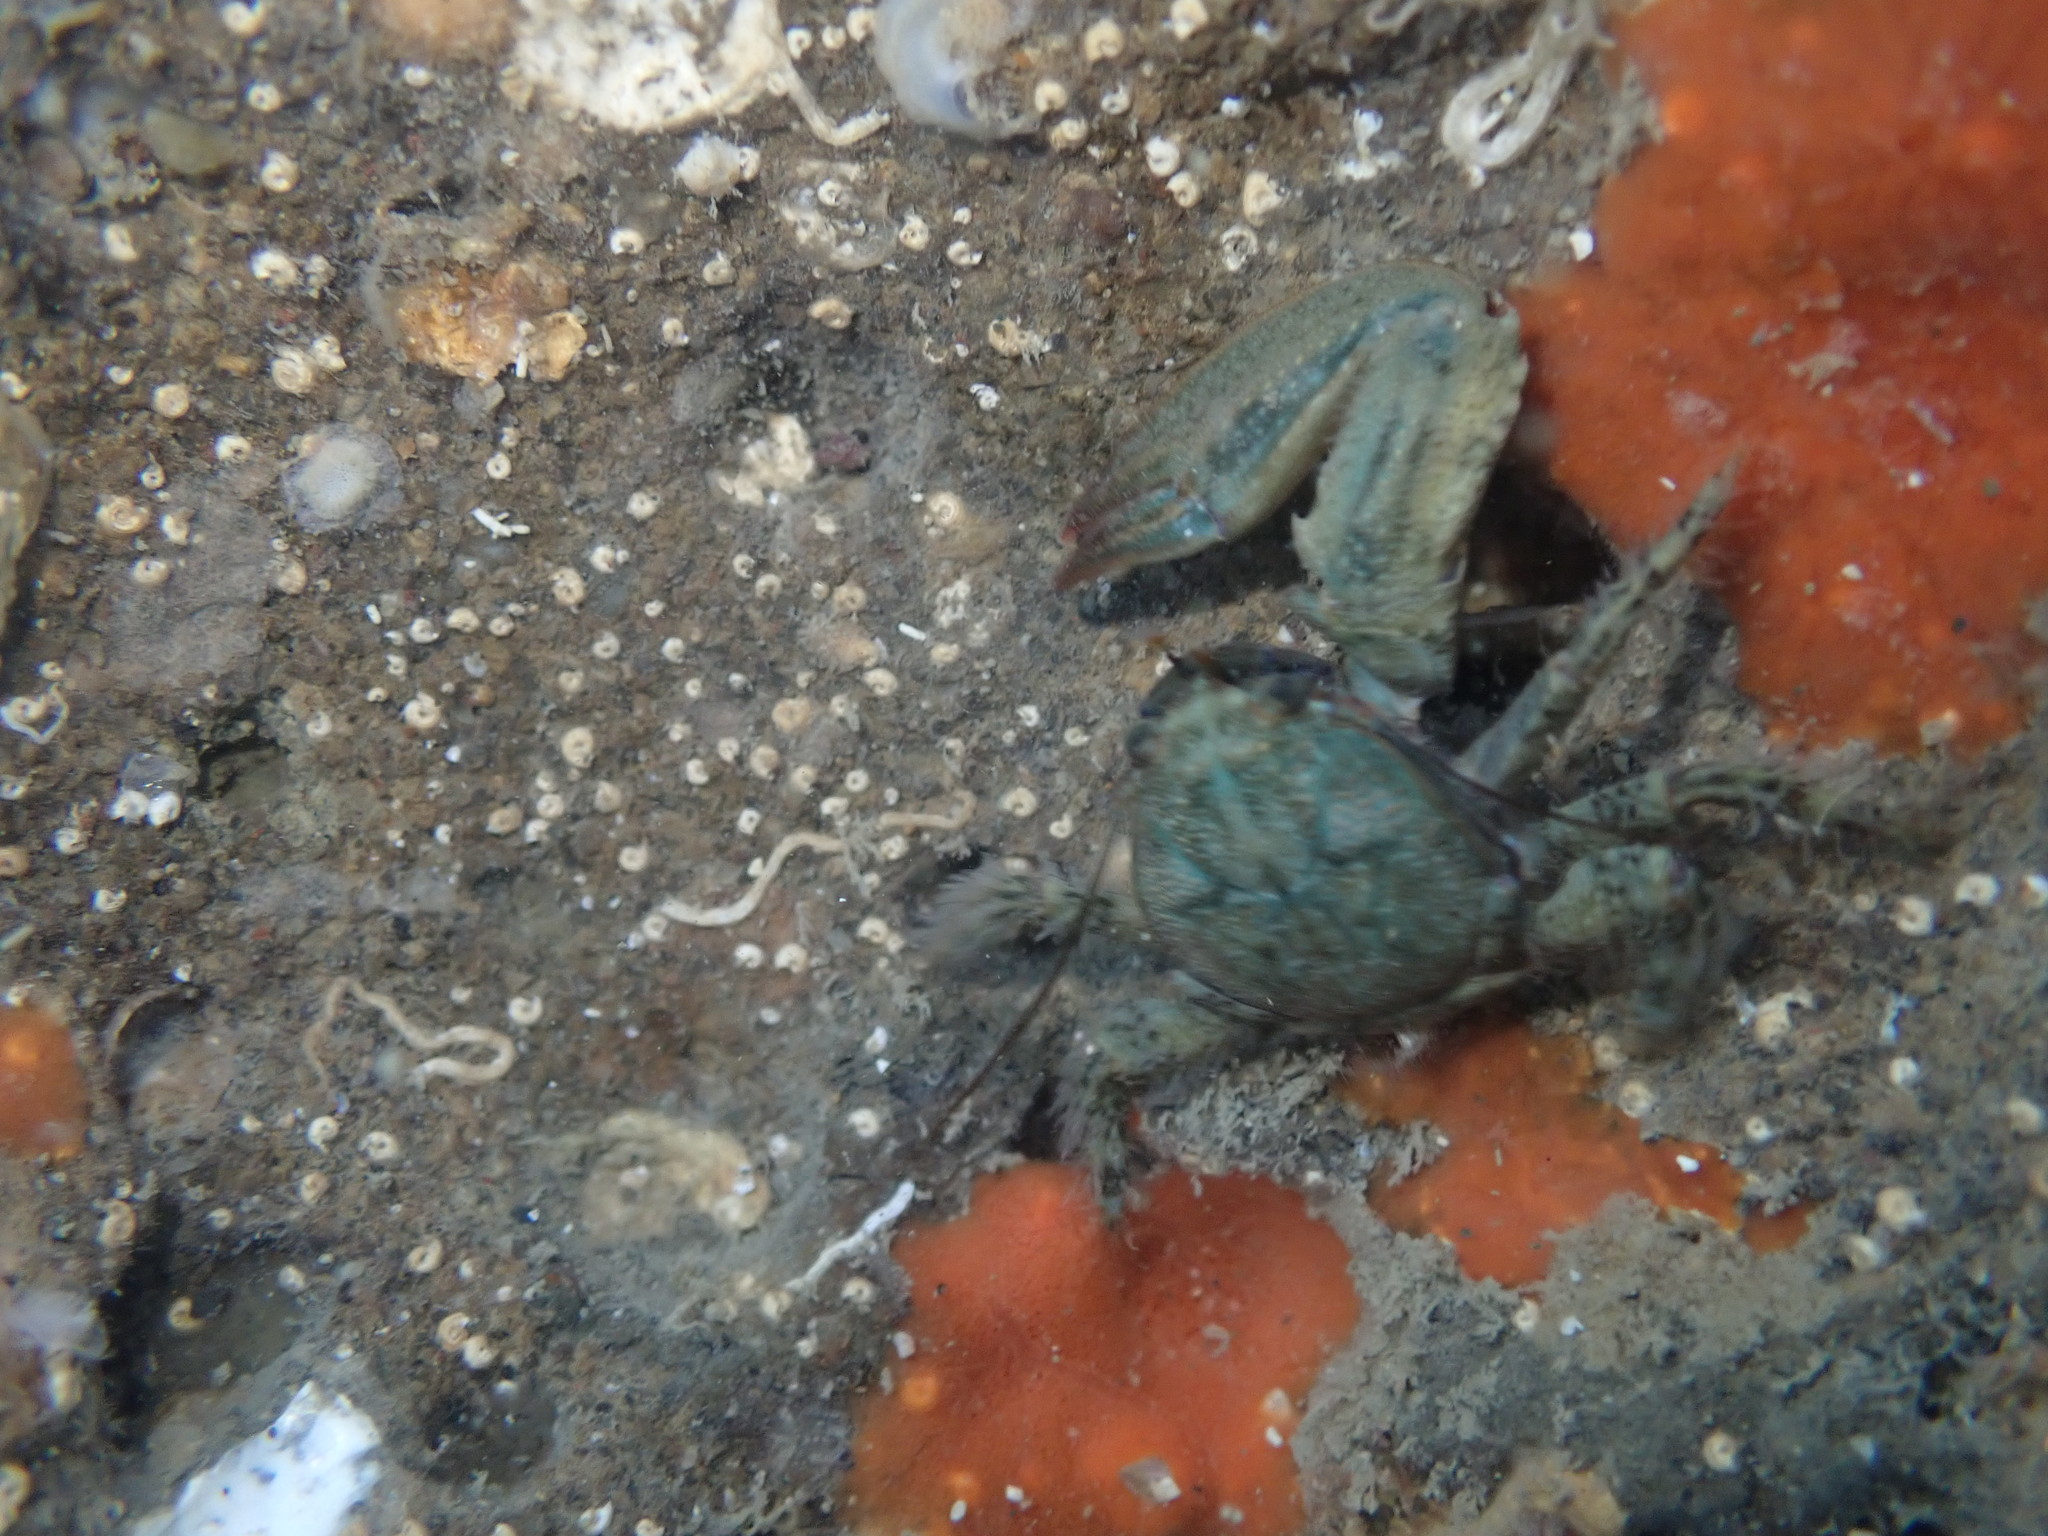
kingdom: Animalia
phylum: Arthropoda
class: Malacostraca
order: Decapoda
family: Porcellanidae
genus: Petrolisthes
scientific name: Petrolisthes elongatus
